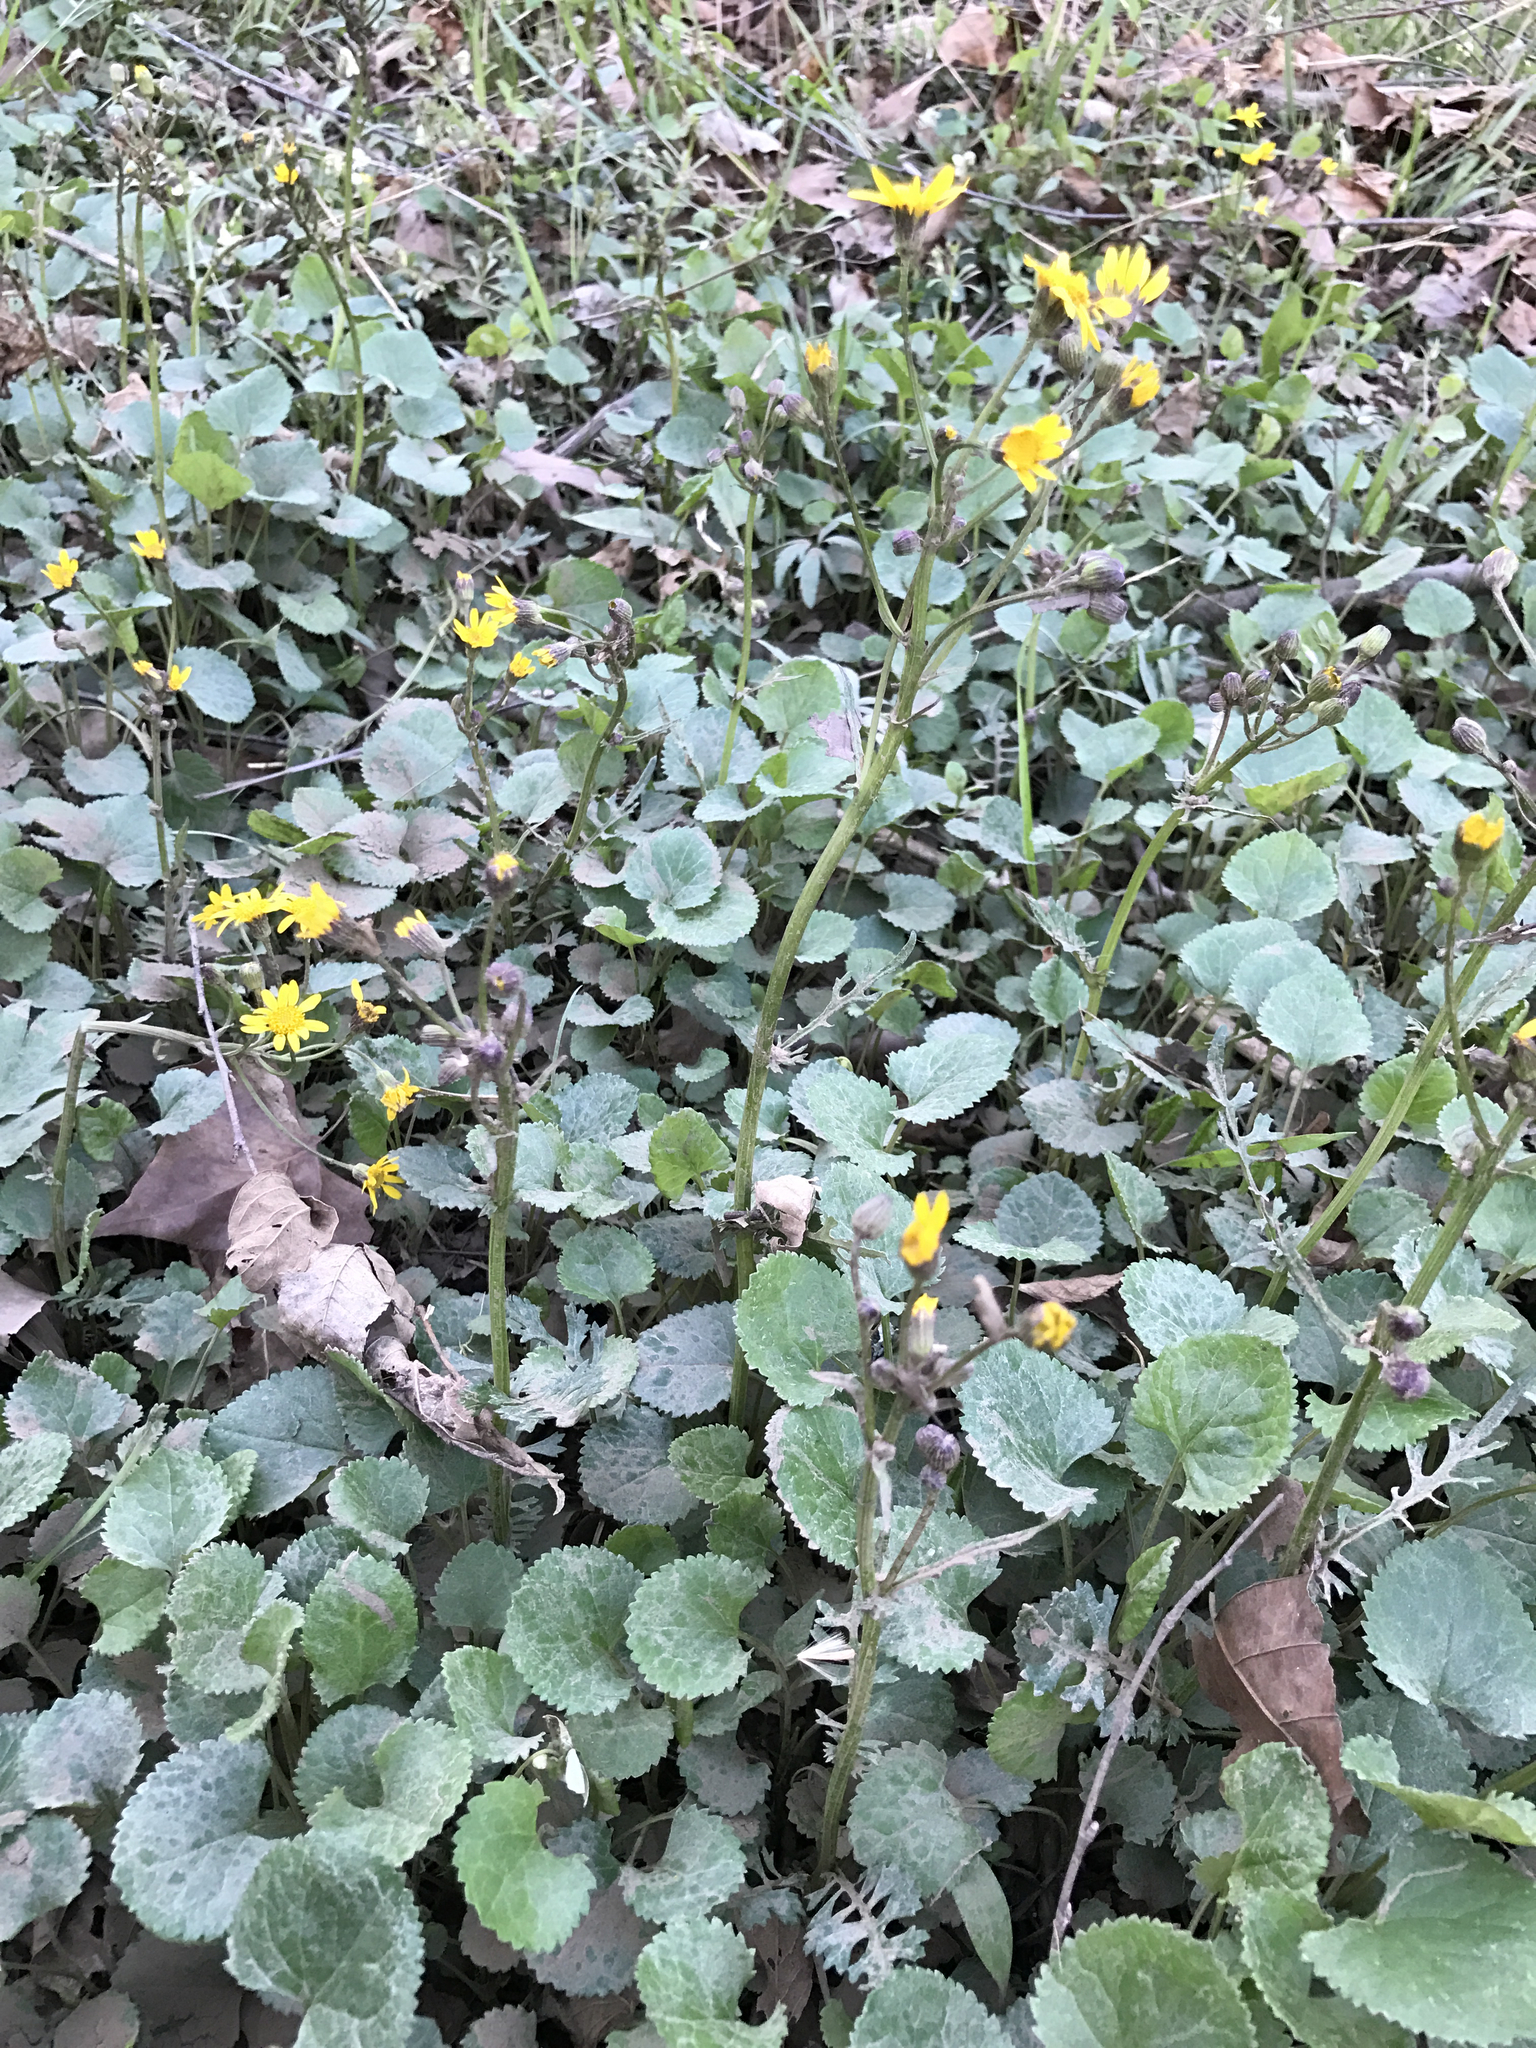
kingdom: Plantae
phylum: Tracheophyta
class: Magnoliopsida
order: Asterales
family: Asteraceae
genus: Packera
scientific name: Packera aurea
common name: Golden groundsel
